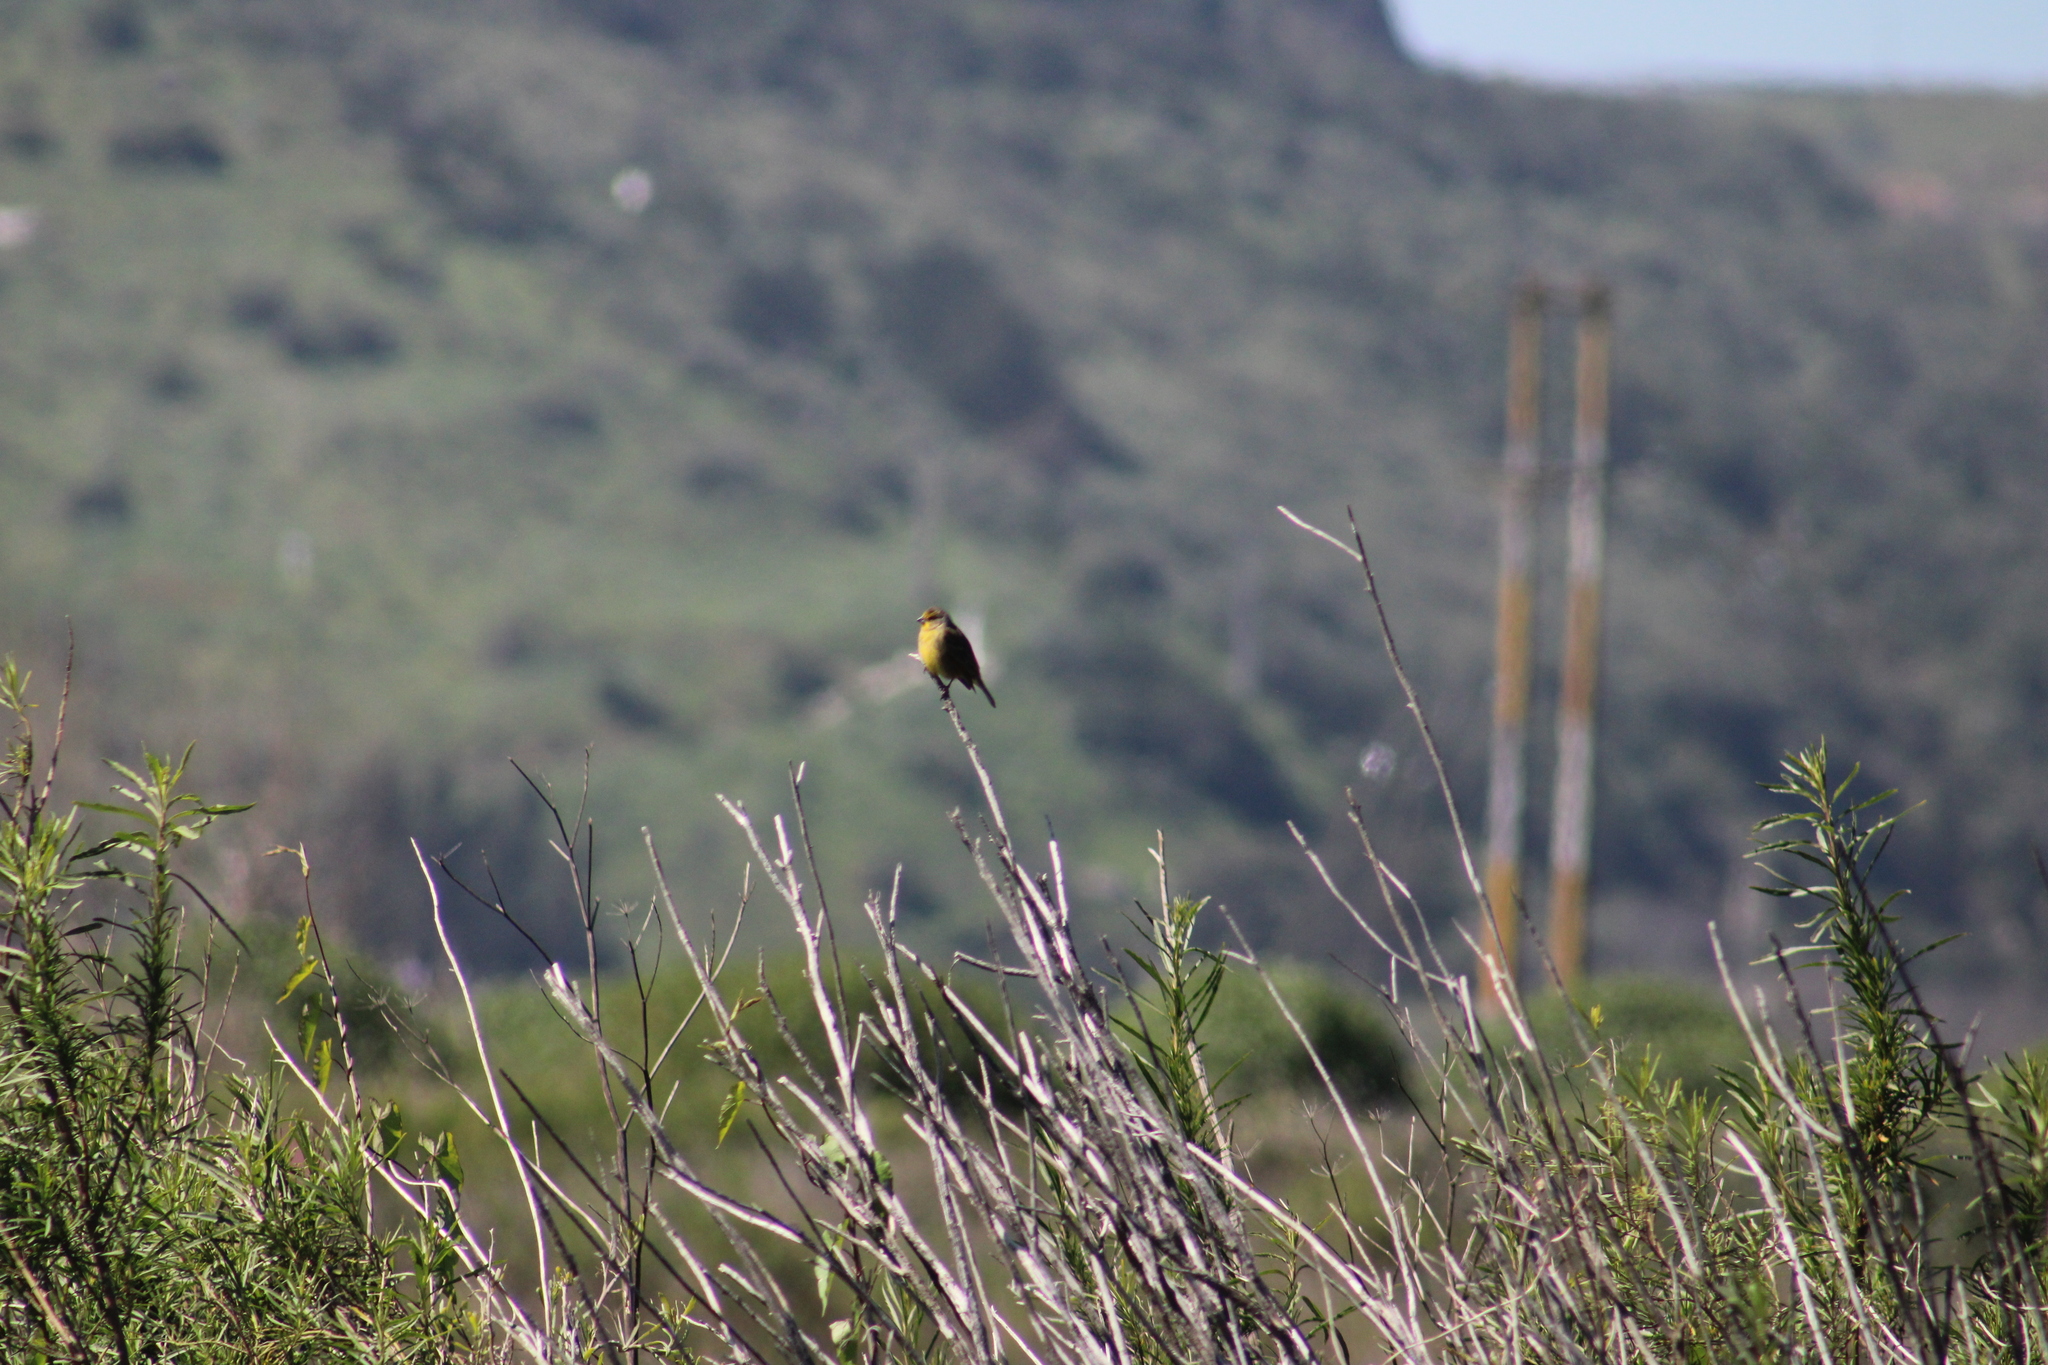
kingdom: Animalia
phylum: Chordata
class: Aves
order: Passeriformes
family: Thraupidae
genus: Sicalis
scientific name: Sicalis luteola
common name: Grassland yellow-finch
